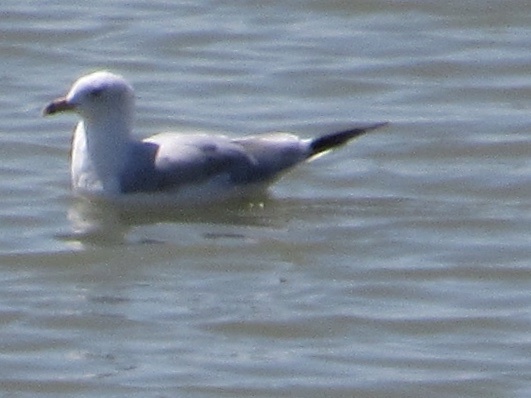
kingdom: Animalia
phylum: Chordata
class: Aves
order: Charadriiformes
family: Laridae
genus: Larus
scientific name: Larus delawarensis
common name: Ring-billed gull
